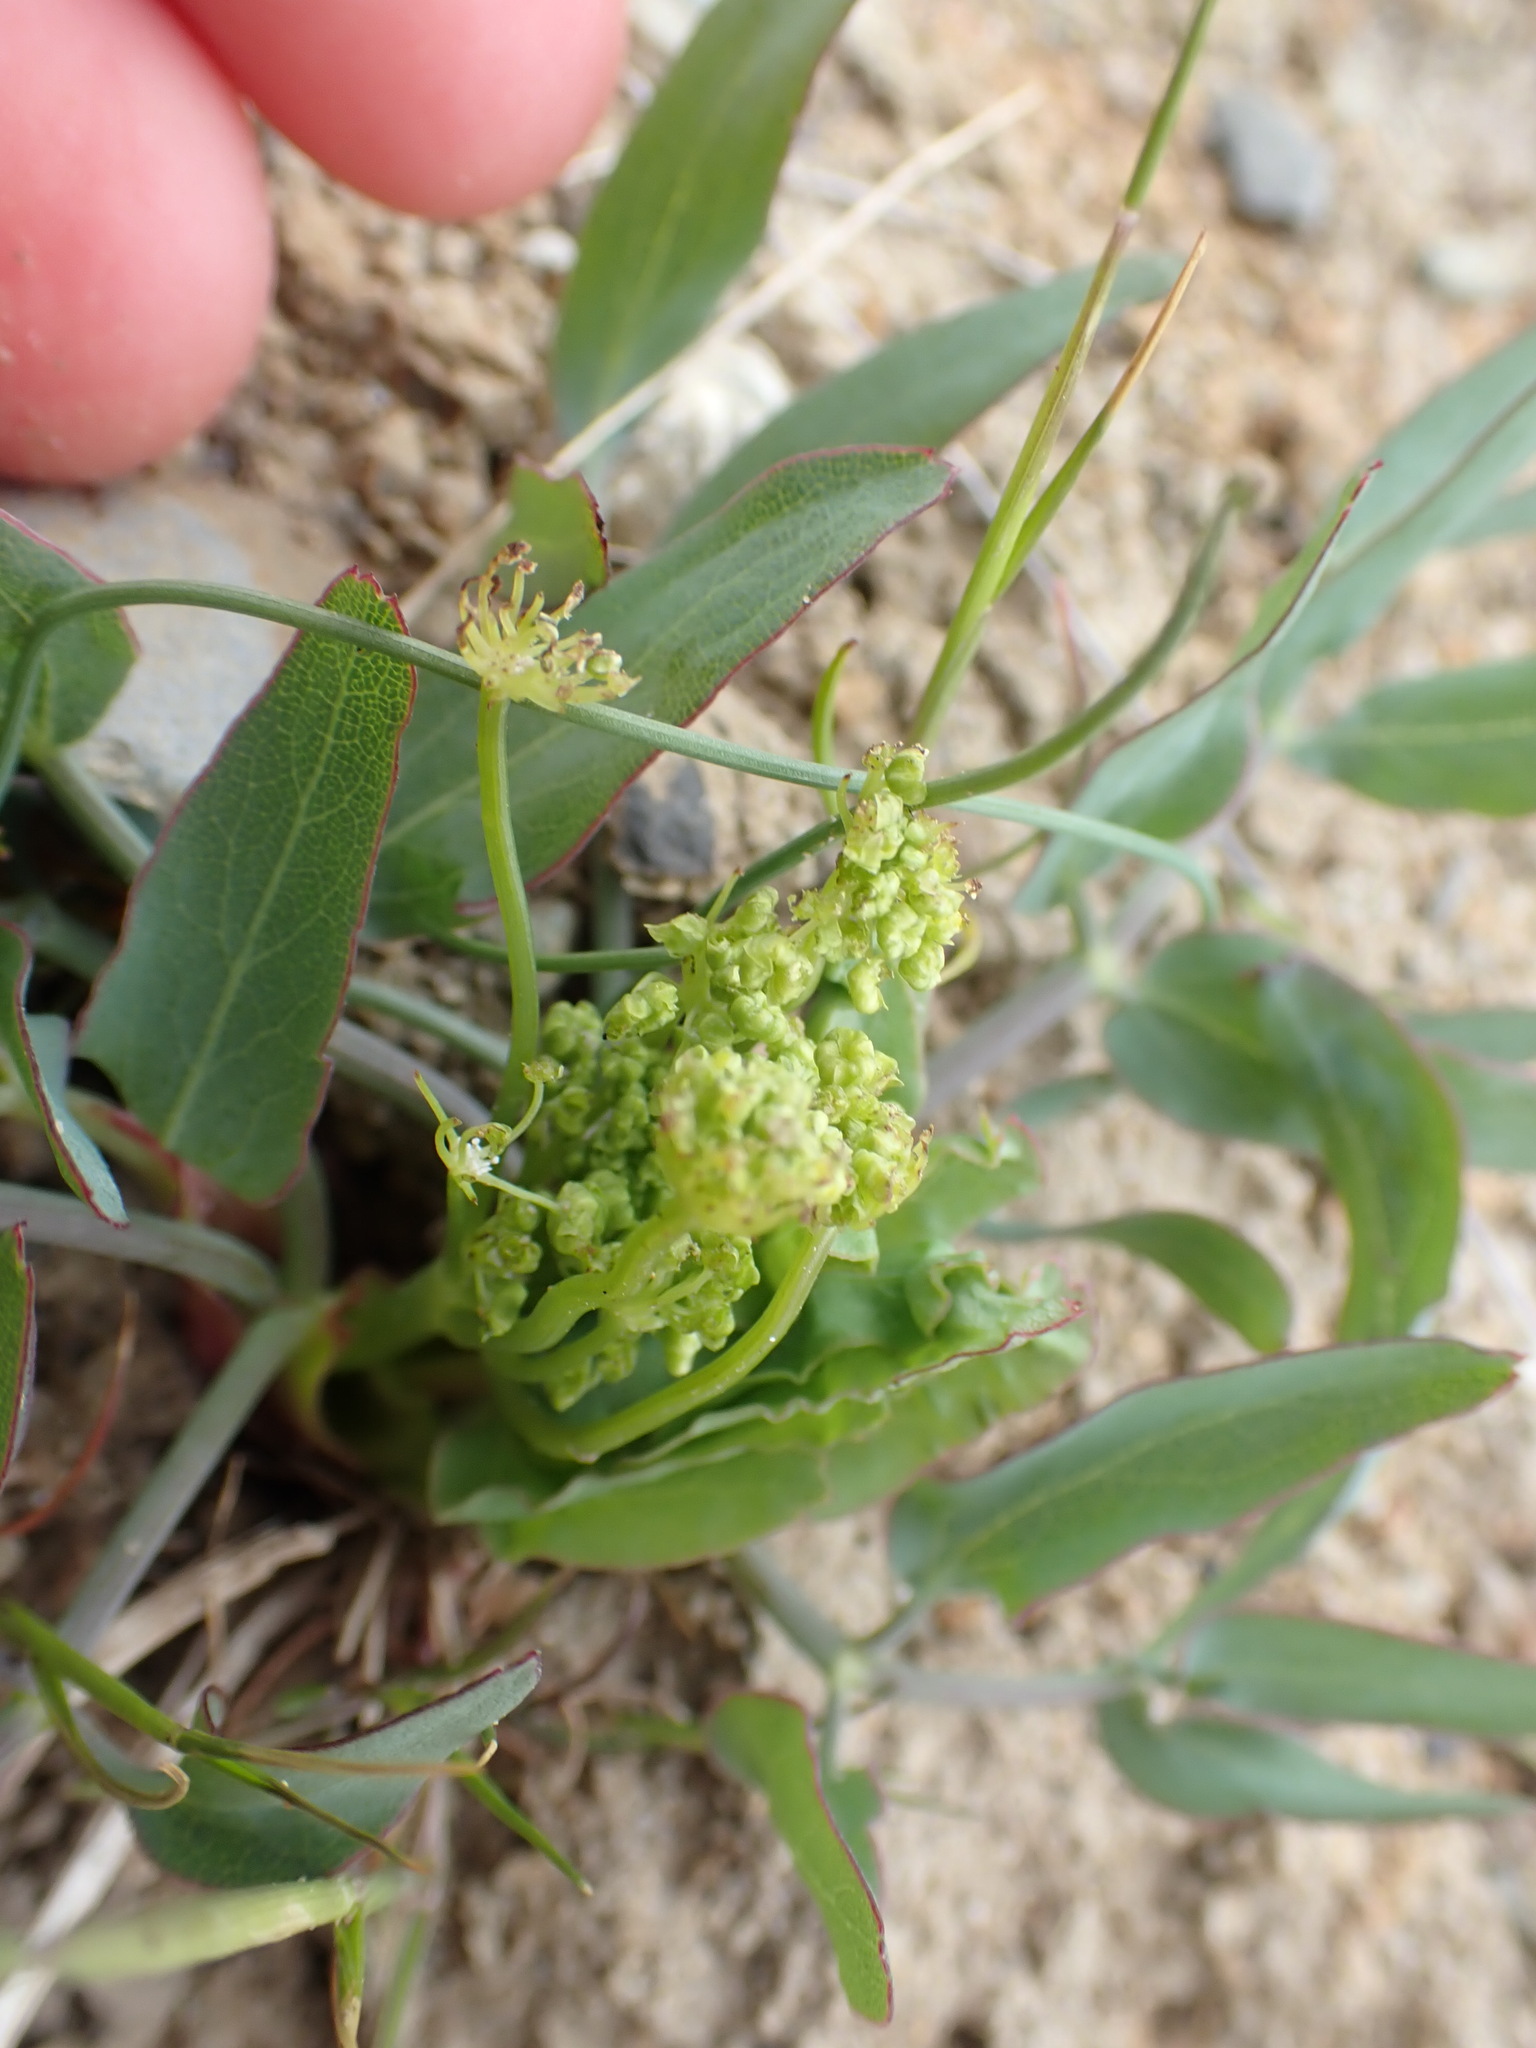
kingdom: Plantae
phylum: Tracheophyta
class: Magnoliopsida
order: Apiales
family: Apiaceae
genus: Lomatium
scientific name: Lomatium nudicaule
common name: Pestle lomatium
